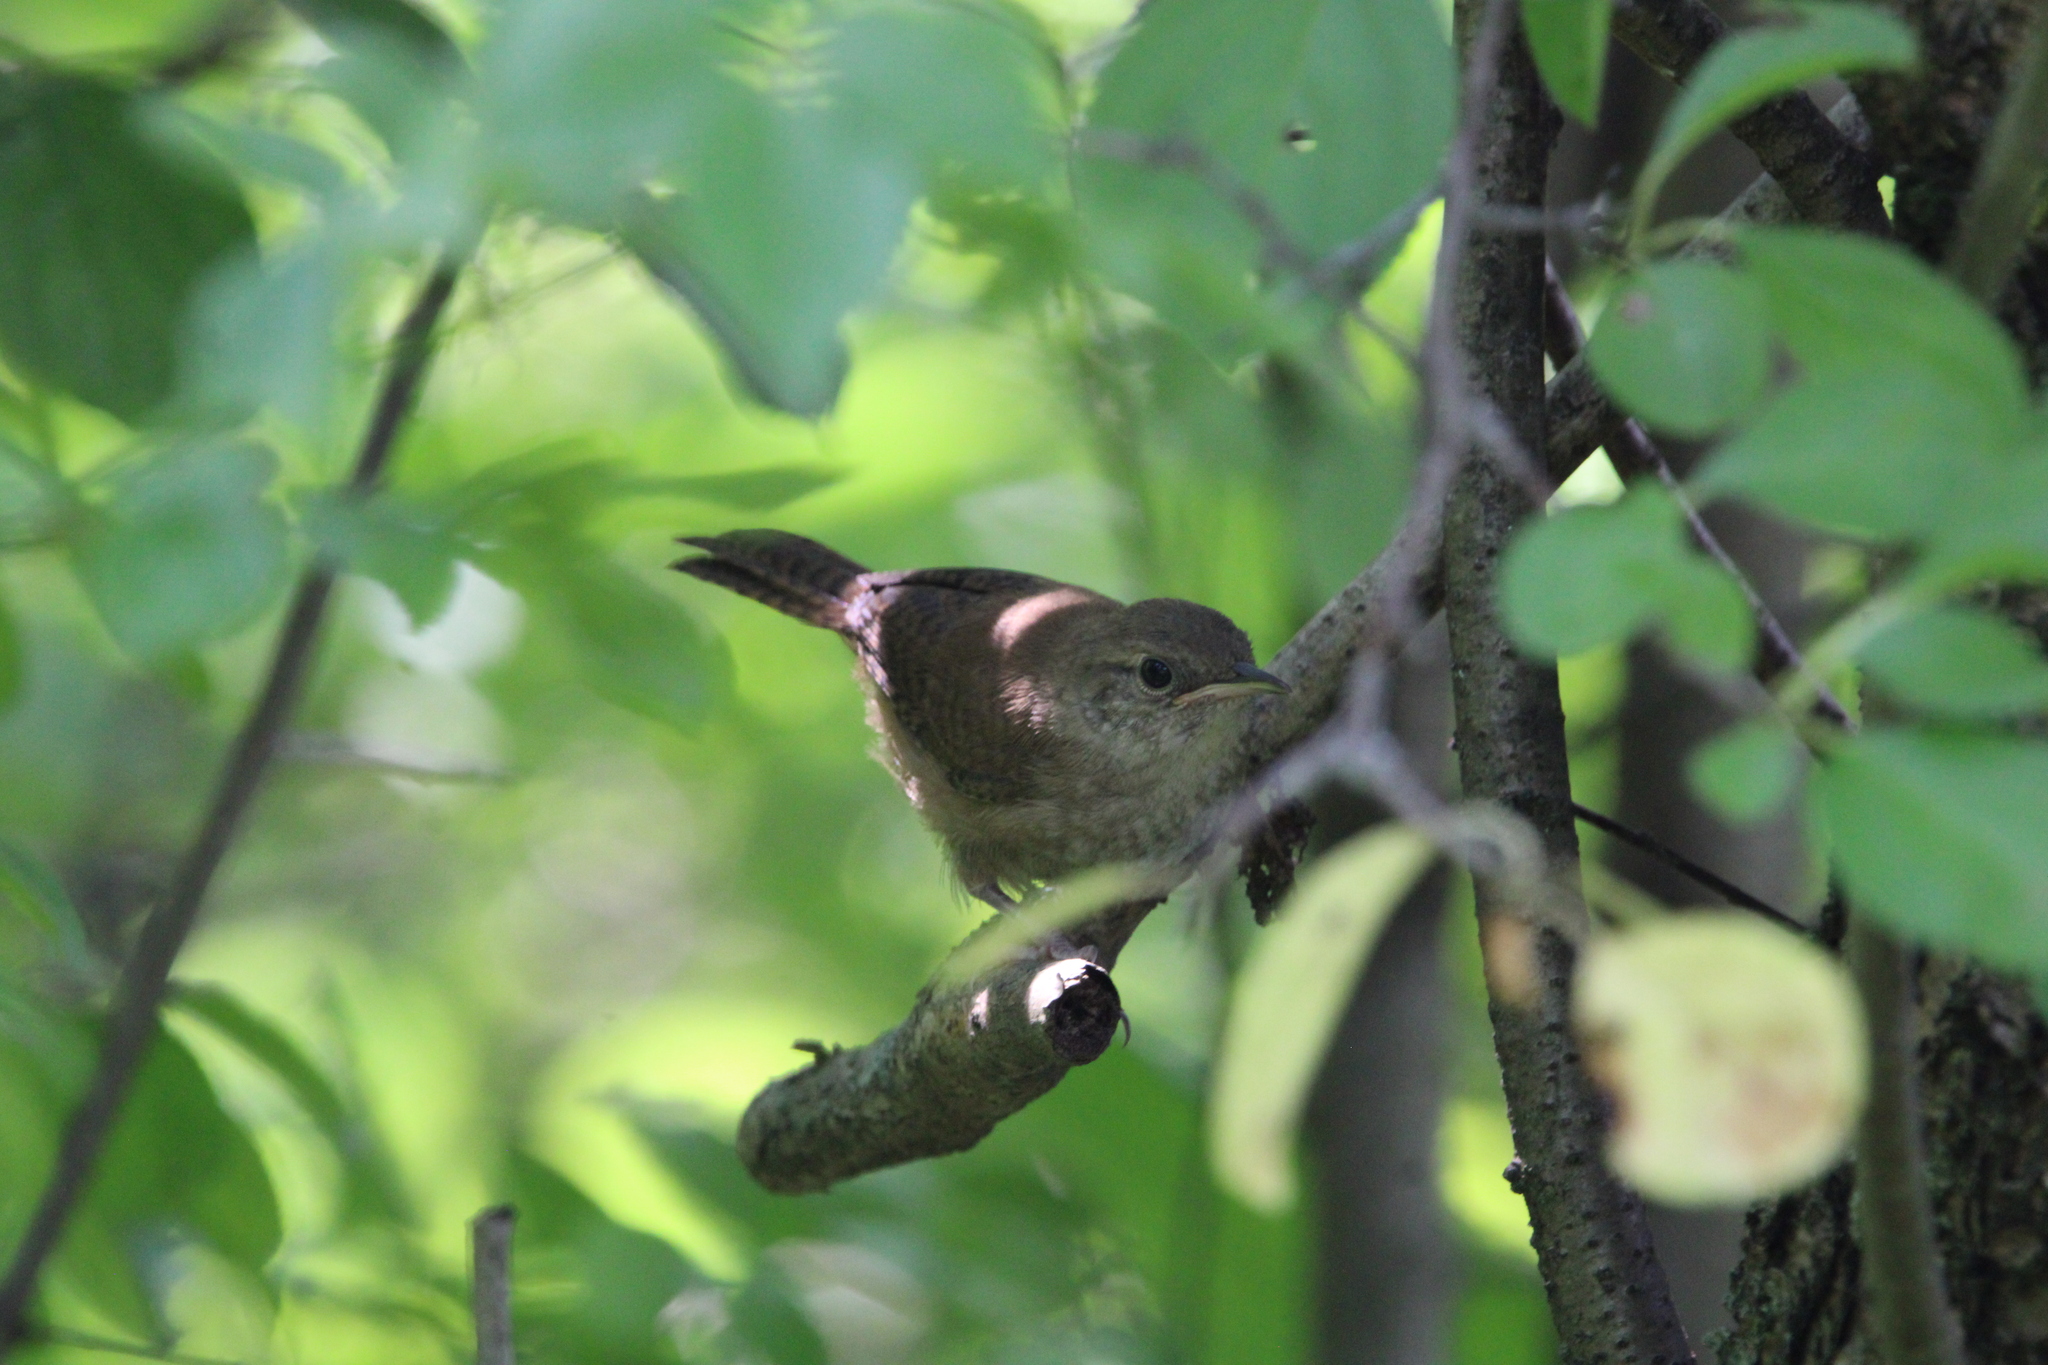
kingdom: Animalia
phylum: Chordata
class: Aves
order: Passeriformes
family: Troglodytidae
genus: Troglodytes
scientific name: Troglodytes aedon
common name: House wren
